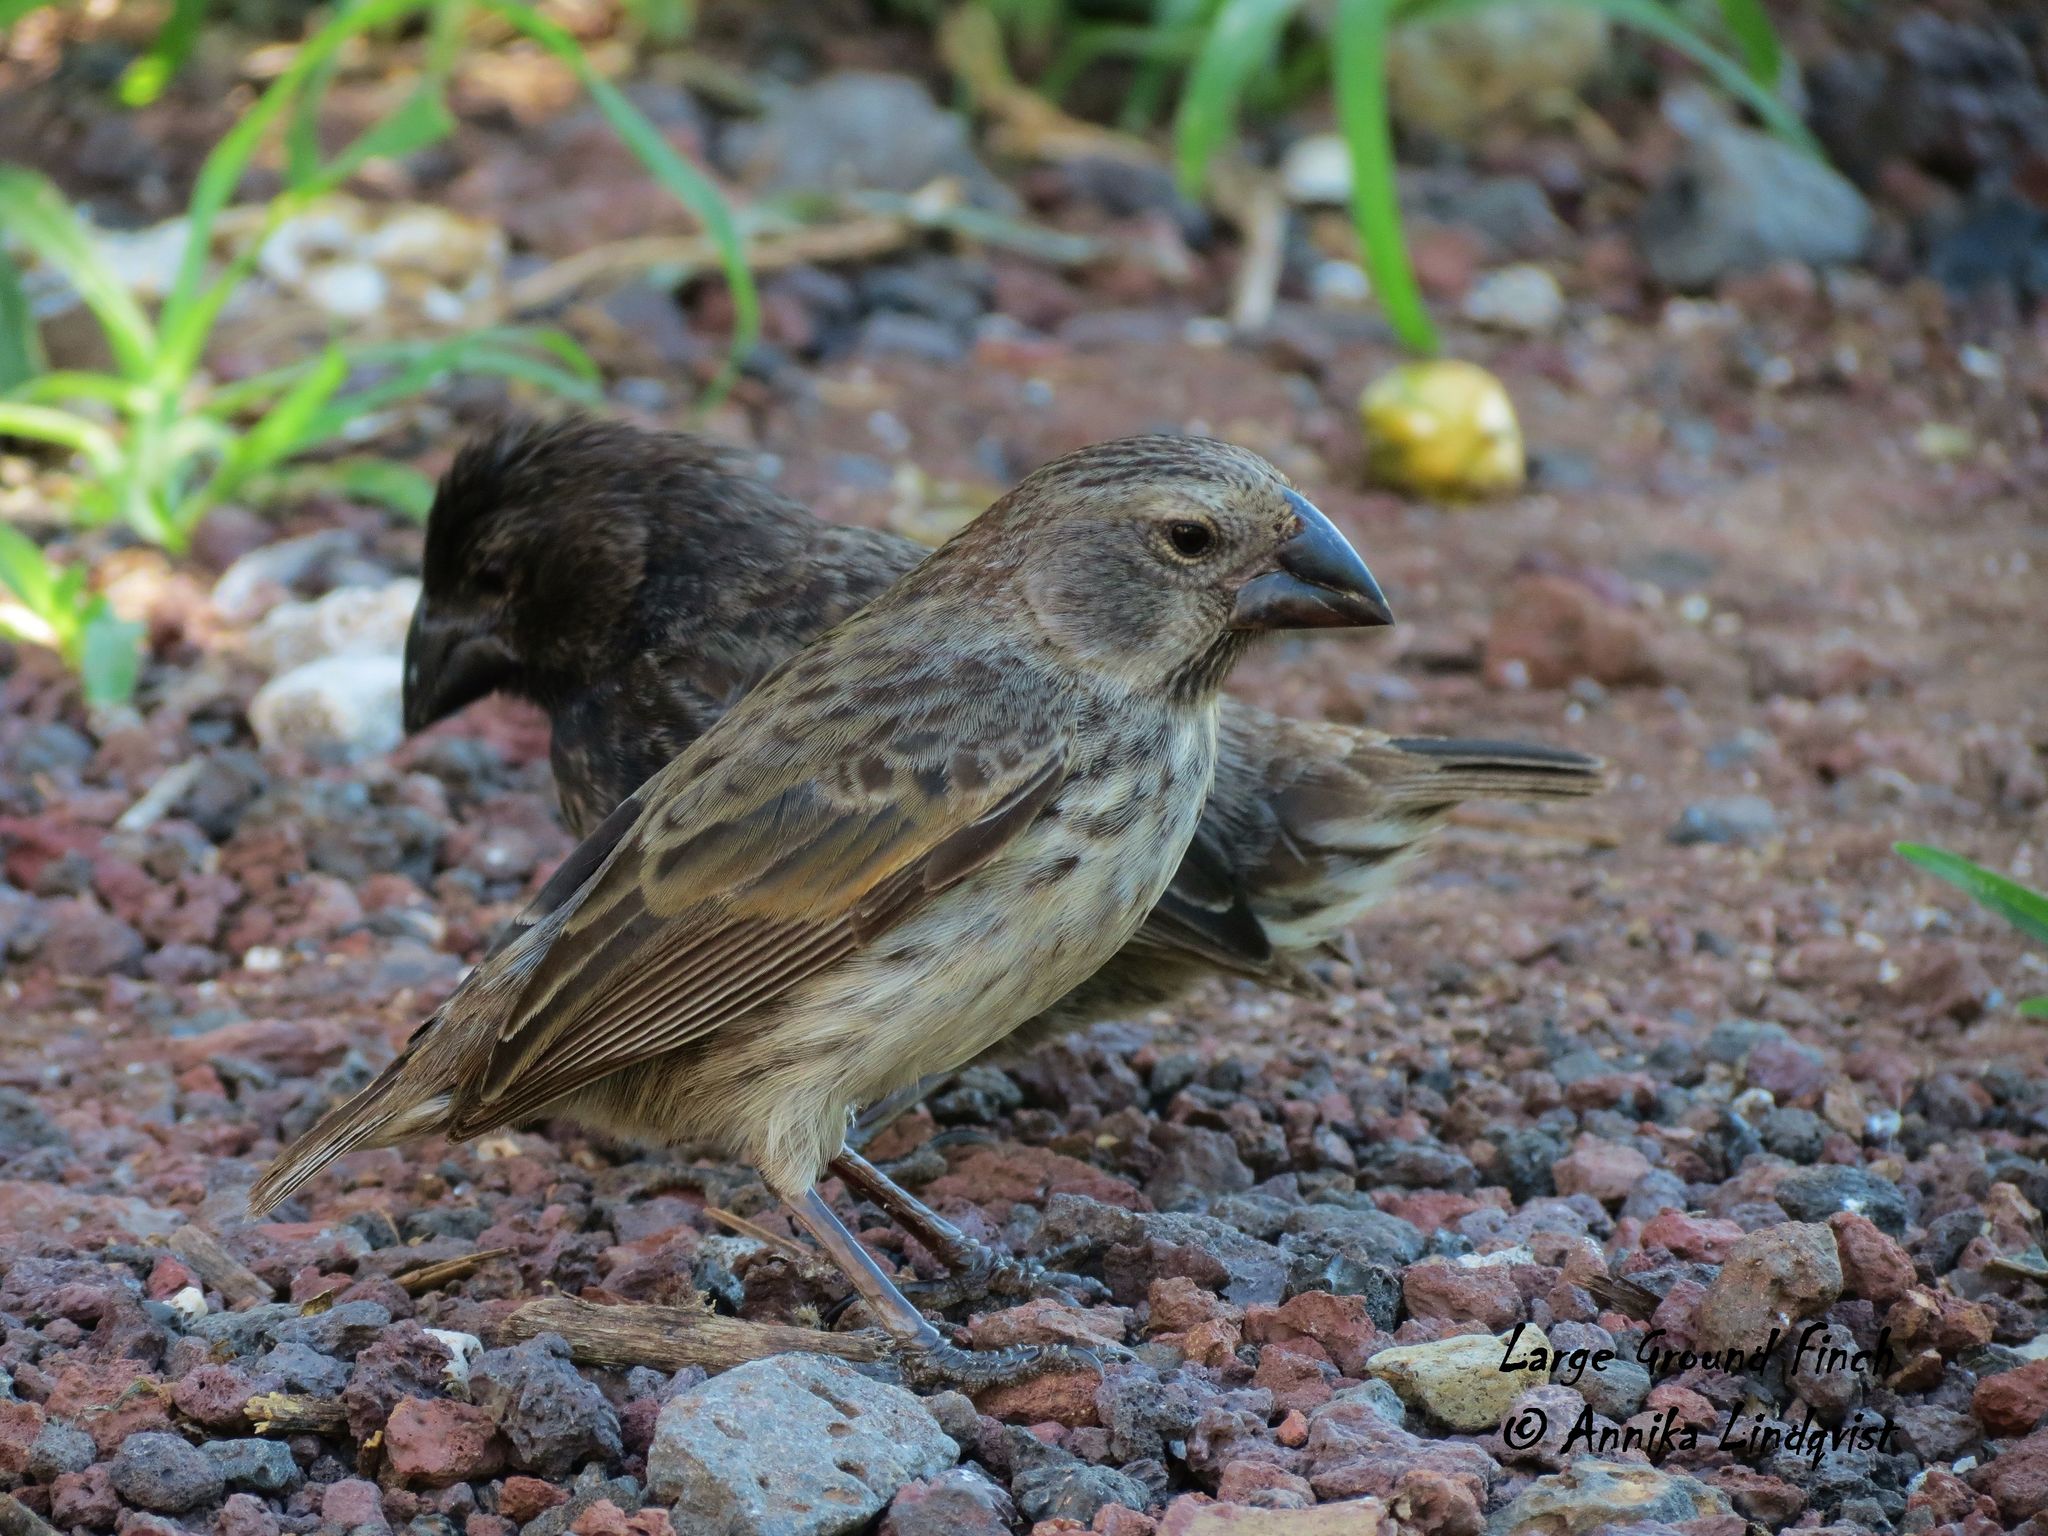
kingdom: Animalia
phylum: Chordata
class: Aves
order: Passeriformes
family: Thraupidae
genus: Geospiza
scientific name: Geospiza fortis
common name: Medium ground finch
